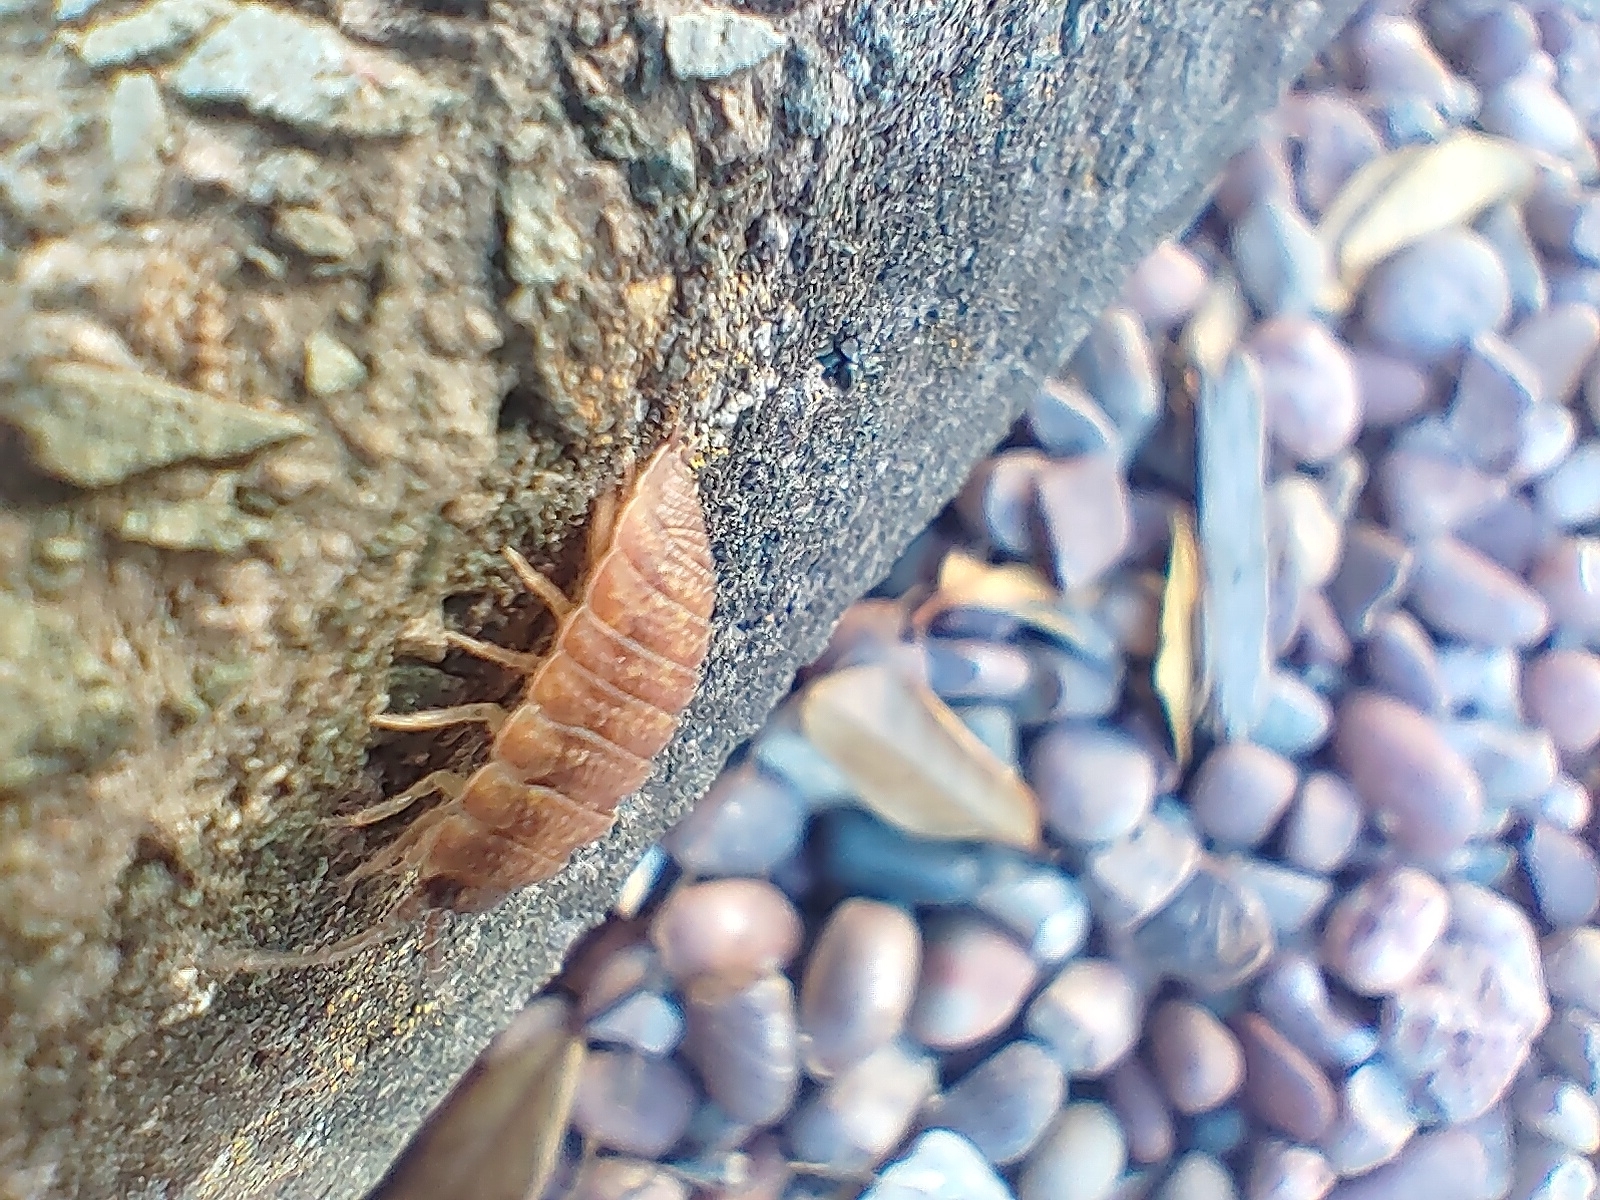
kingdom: Animalia
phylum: Arthropoda
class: Malacostraca
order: Isopoda
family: Porcellionidae
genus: Porcellio
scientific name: Porcellio scaber
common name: Common rough woodlouse
